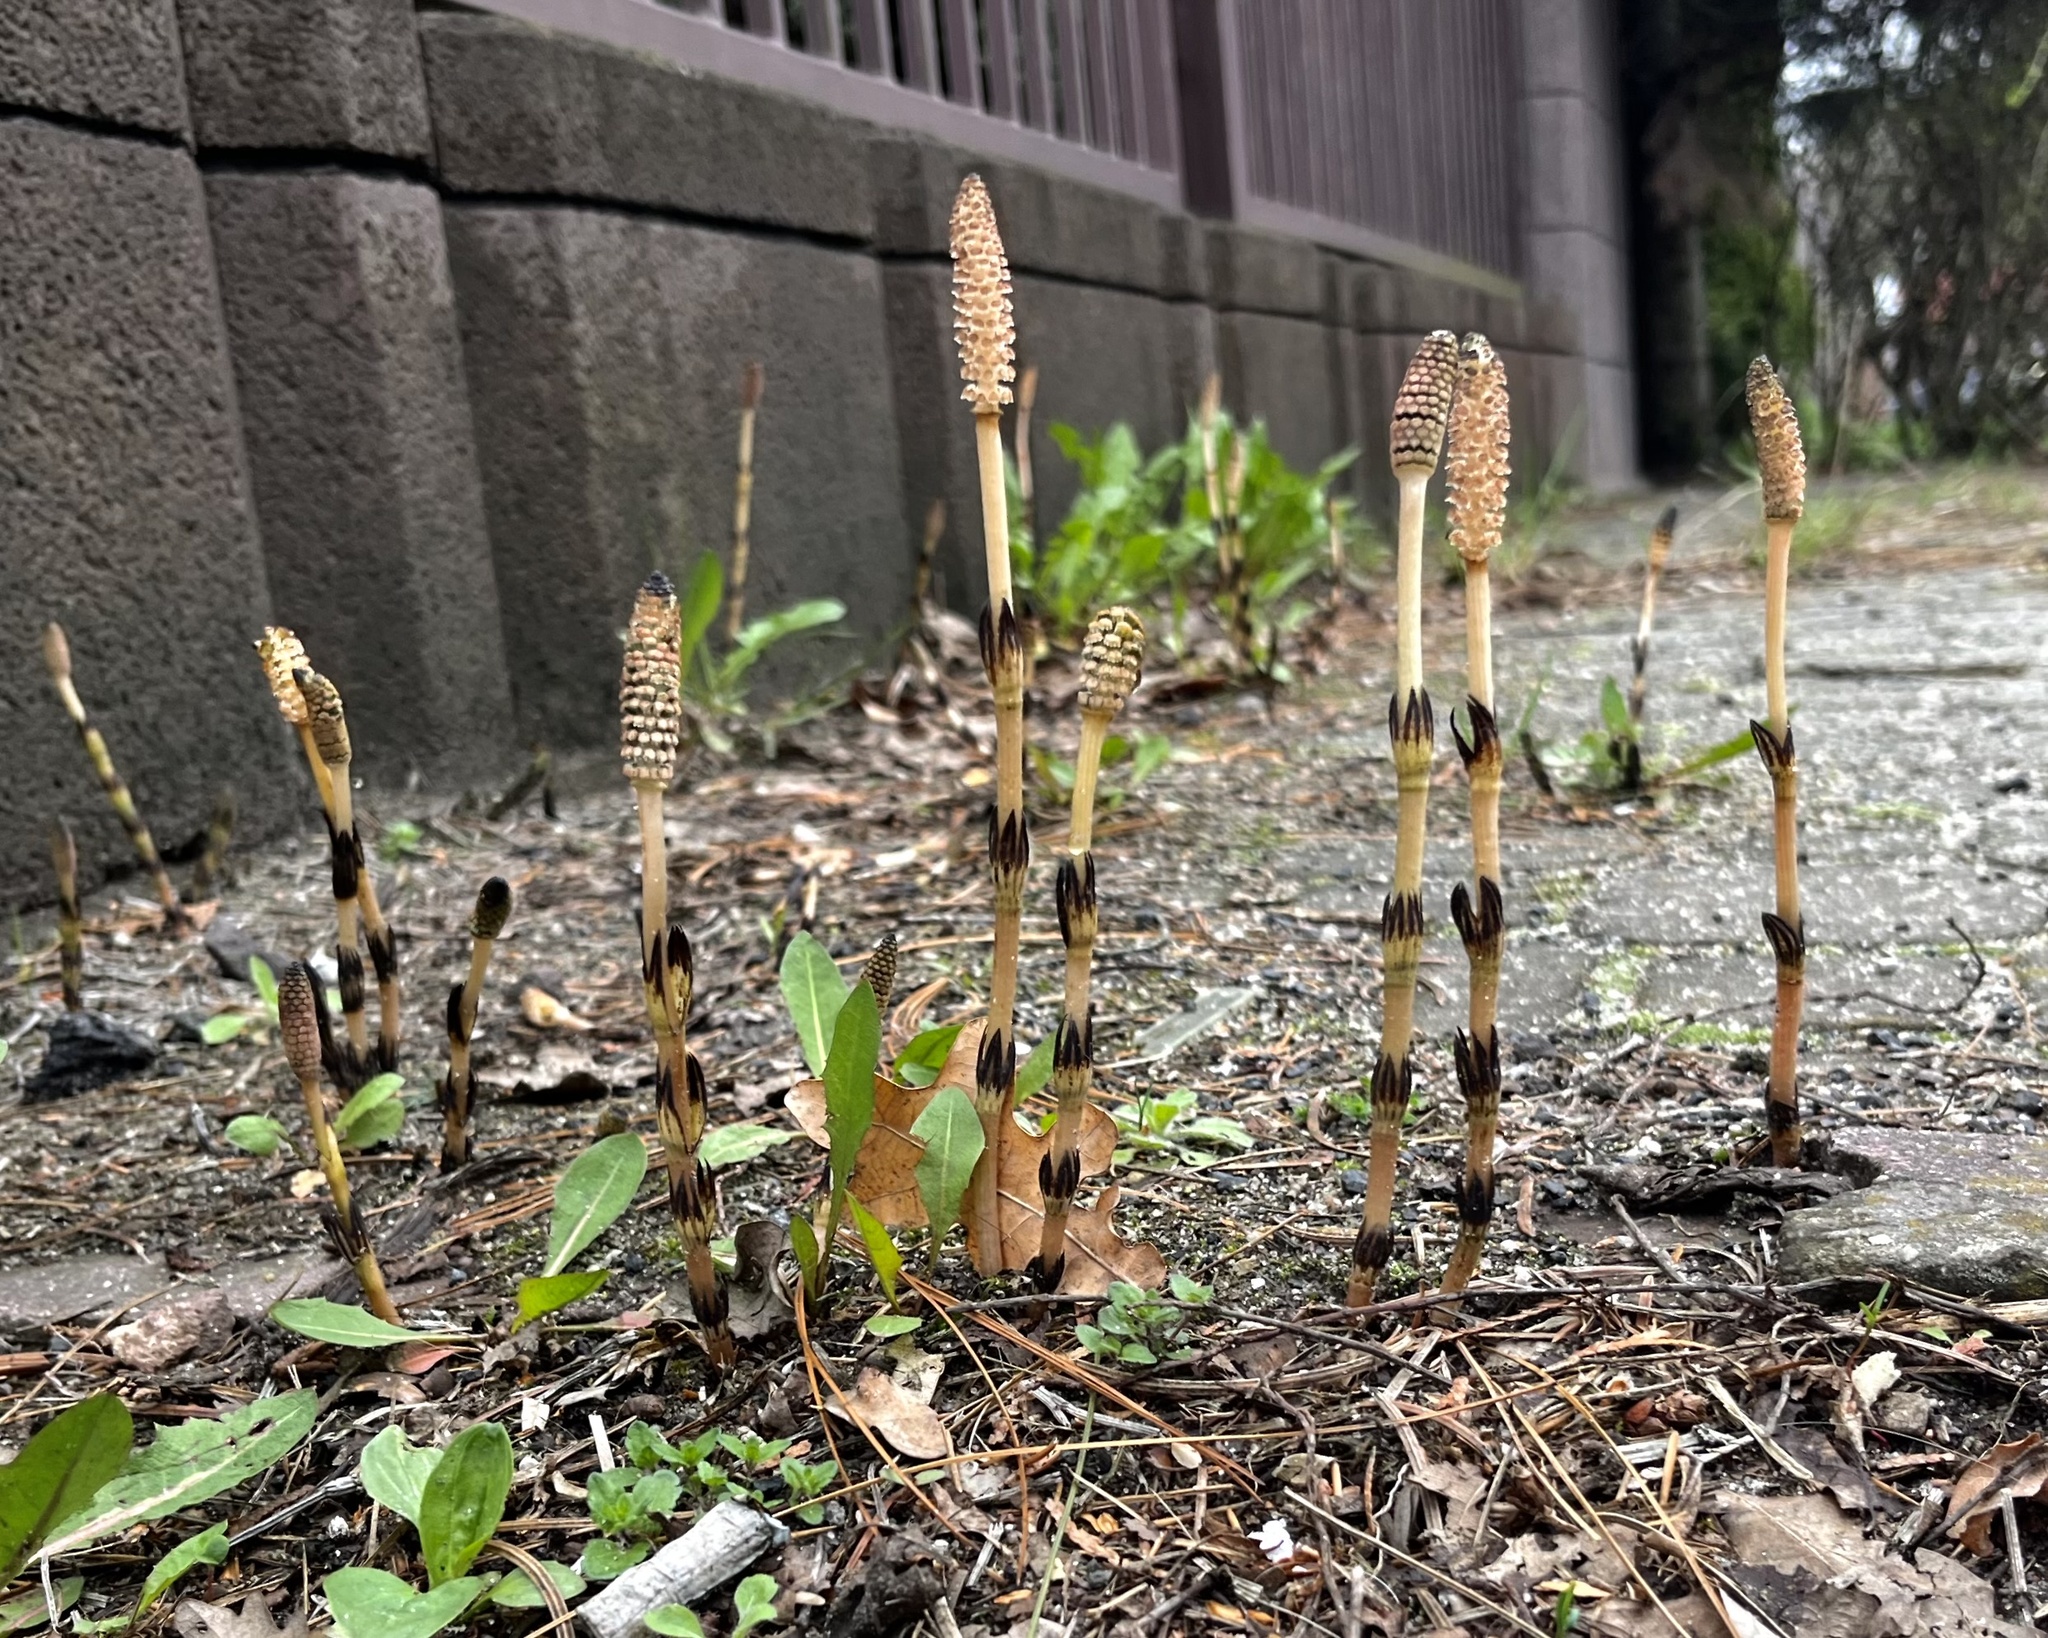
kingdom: Plantae
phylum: Tracheophyta
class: Polypodiopsida
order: Equisetales
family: Equisetaceae
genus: Equisetum
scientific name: Equisetum arvense
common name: Field horsetail
